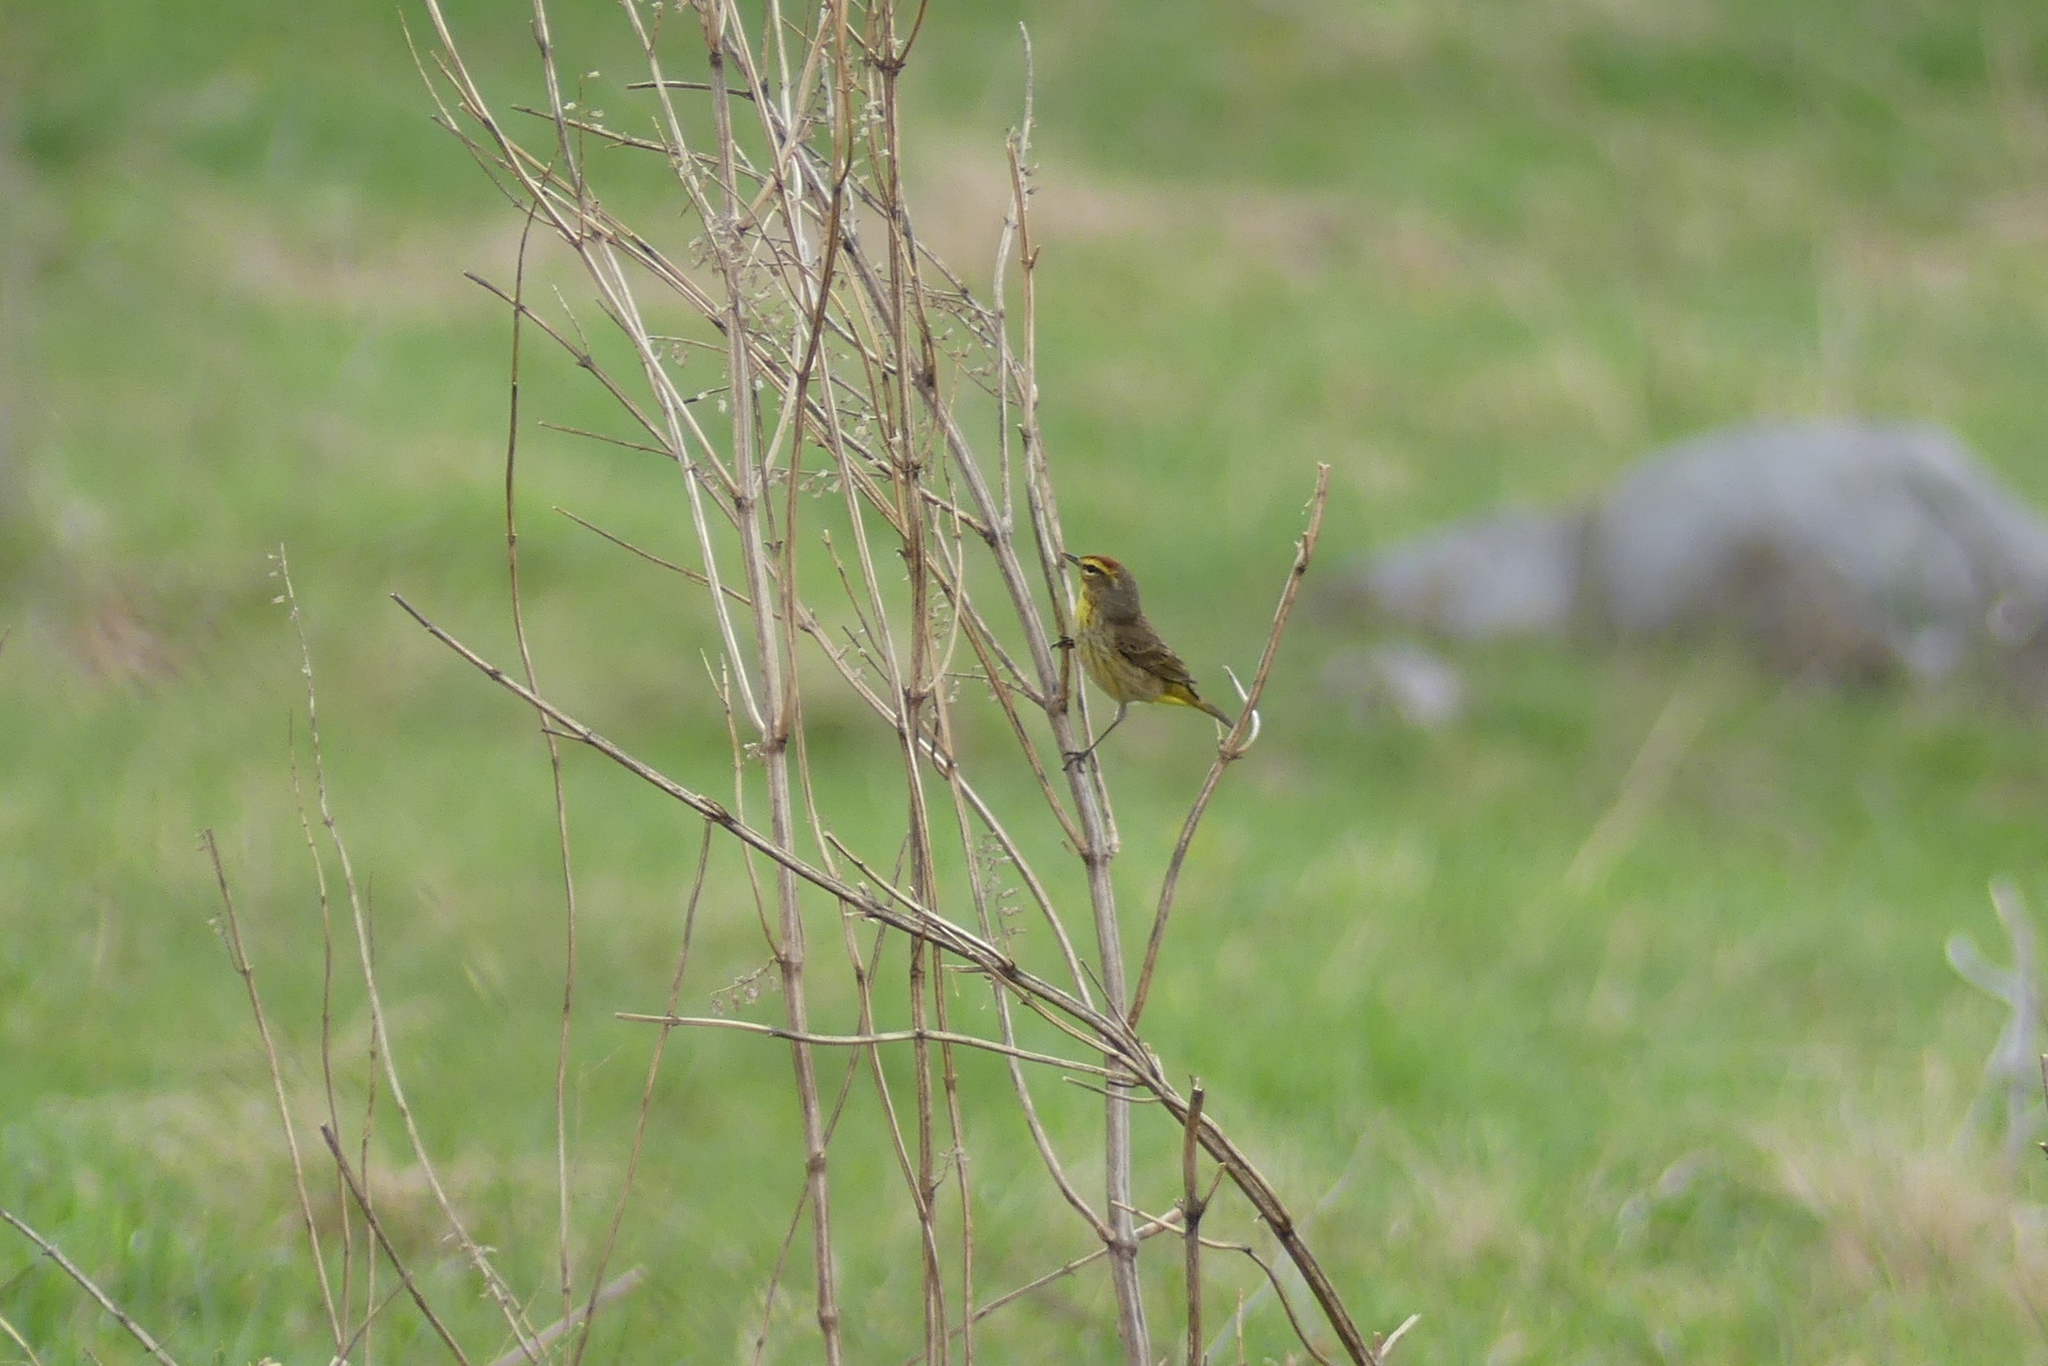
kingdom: Animalia
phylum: Chordata
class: Aves
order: Passeriformes
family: Parulidae
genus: Setophaga
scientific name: Setophaga palmarum
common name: Palm warbler
